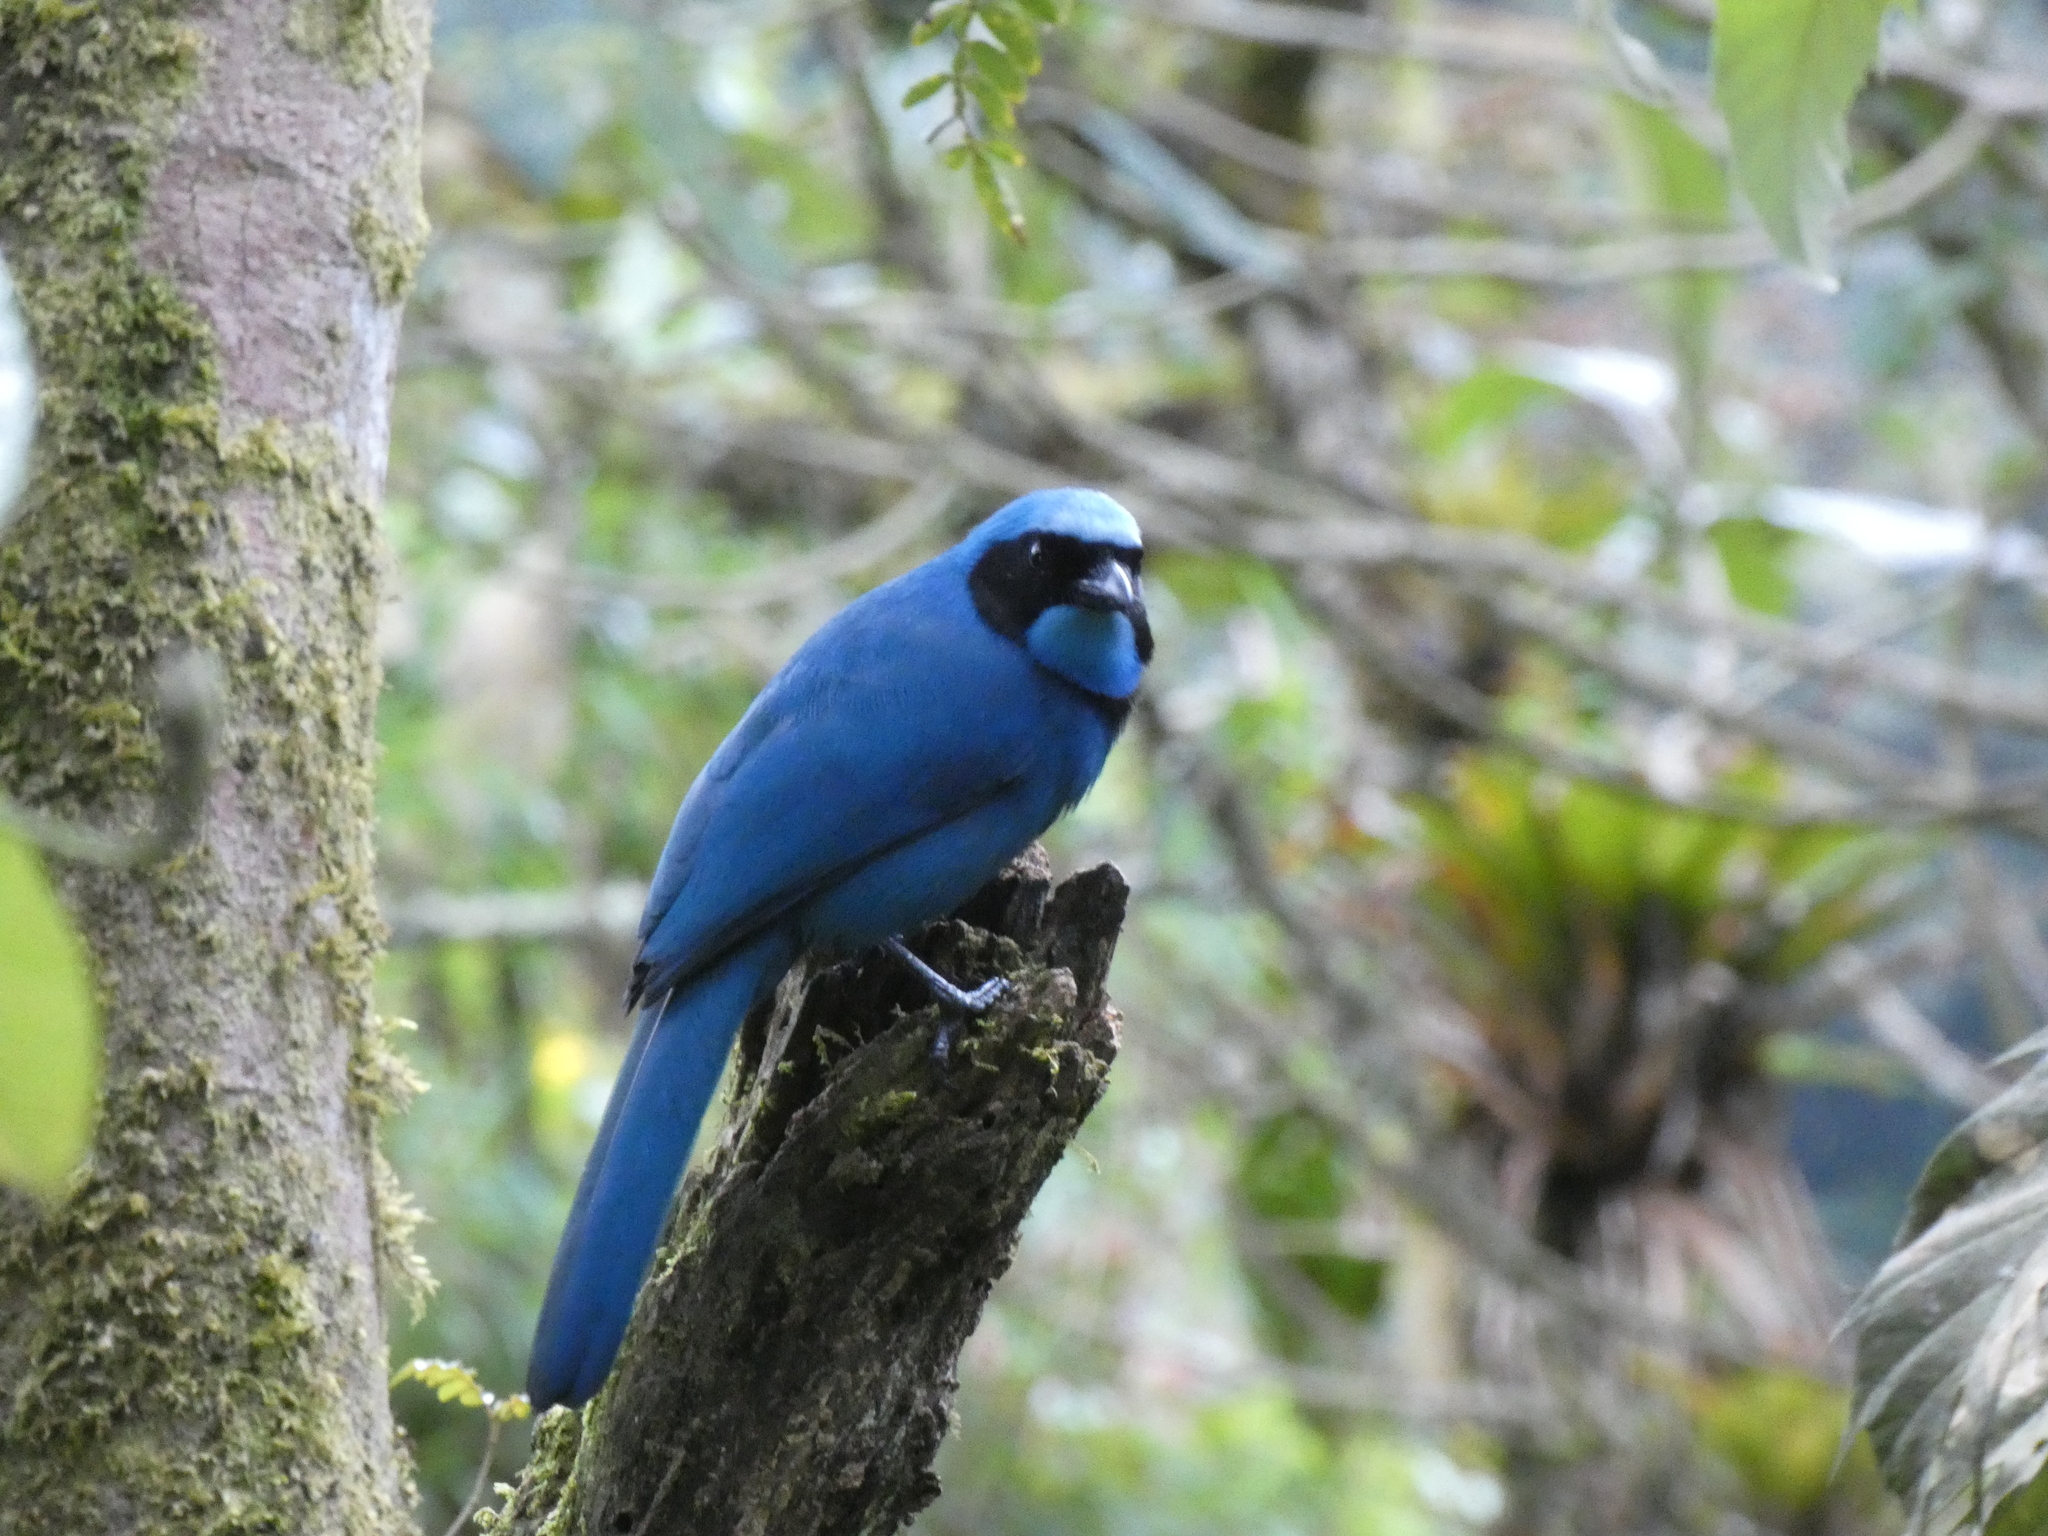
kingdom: Animalia
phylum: Chordata
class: Aves
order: Passeriformes
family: Corvidae
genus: Cyanolyca
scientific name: Cyanolyca turcosa
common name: Turquoise jay
